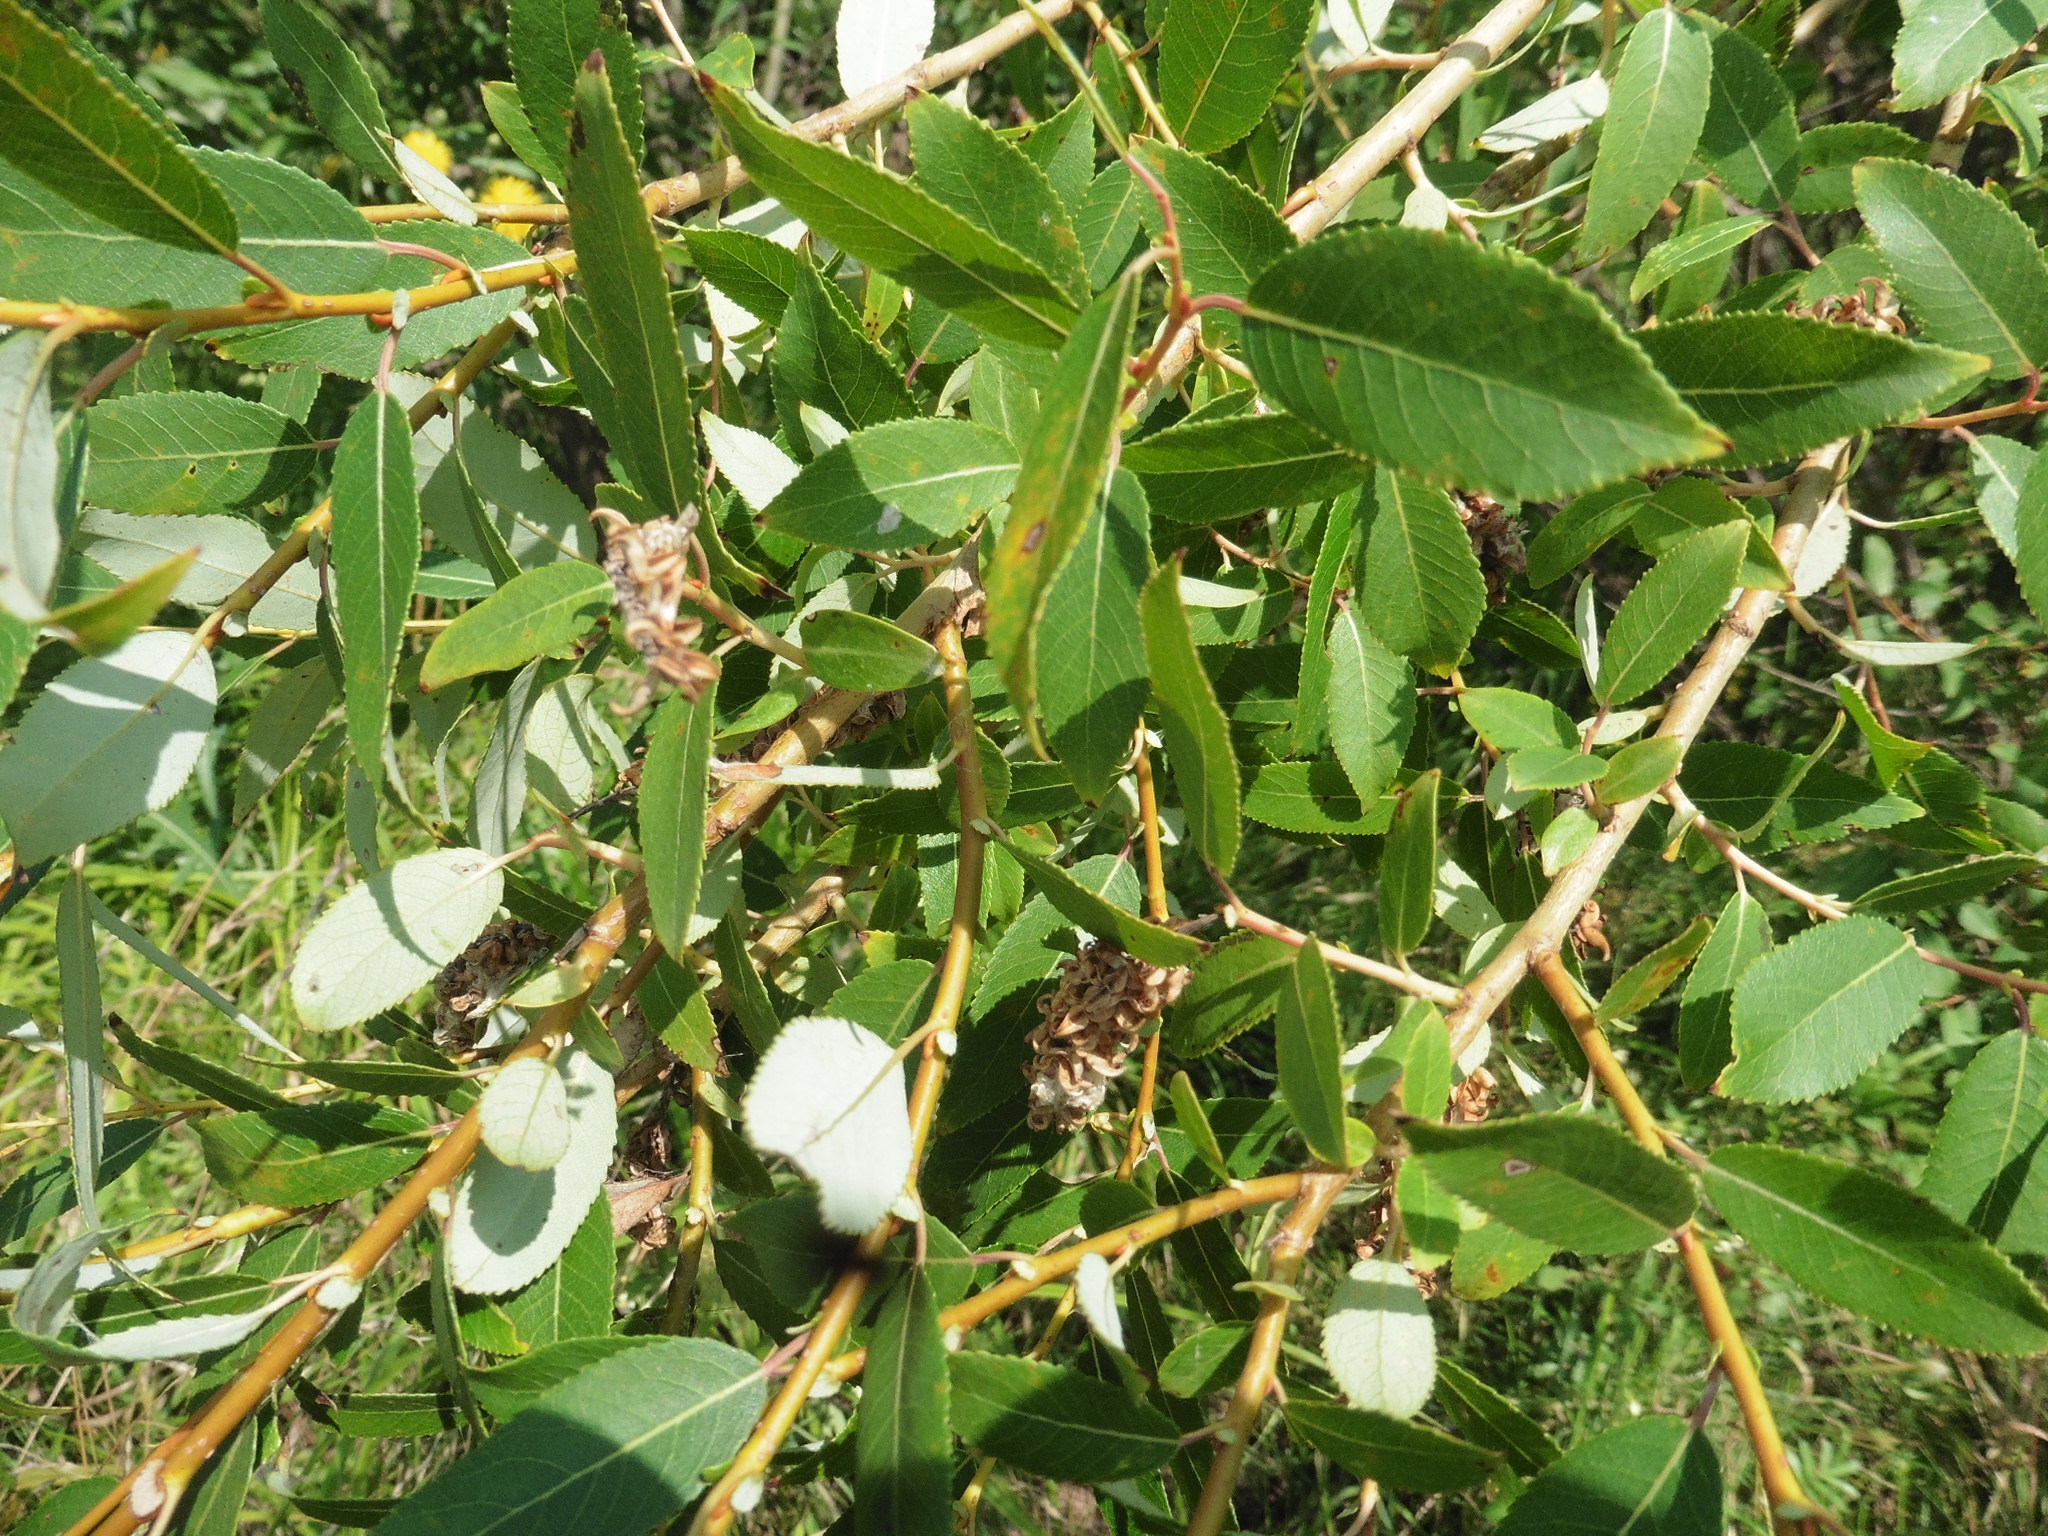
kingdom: Plantae
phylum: Tracheophyta
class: Magnoliopsida
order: Malpighiales
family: Salicaceae
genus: Salix
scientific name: Salix triandra
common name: Almond willow
